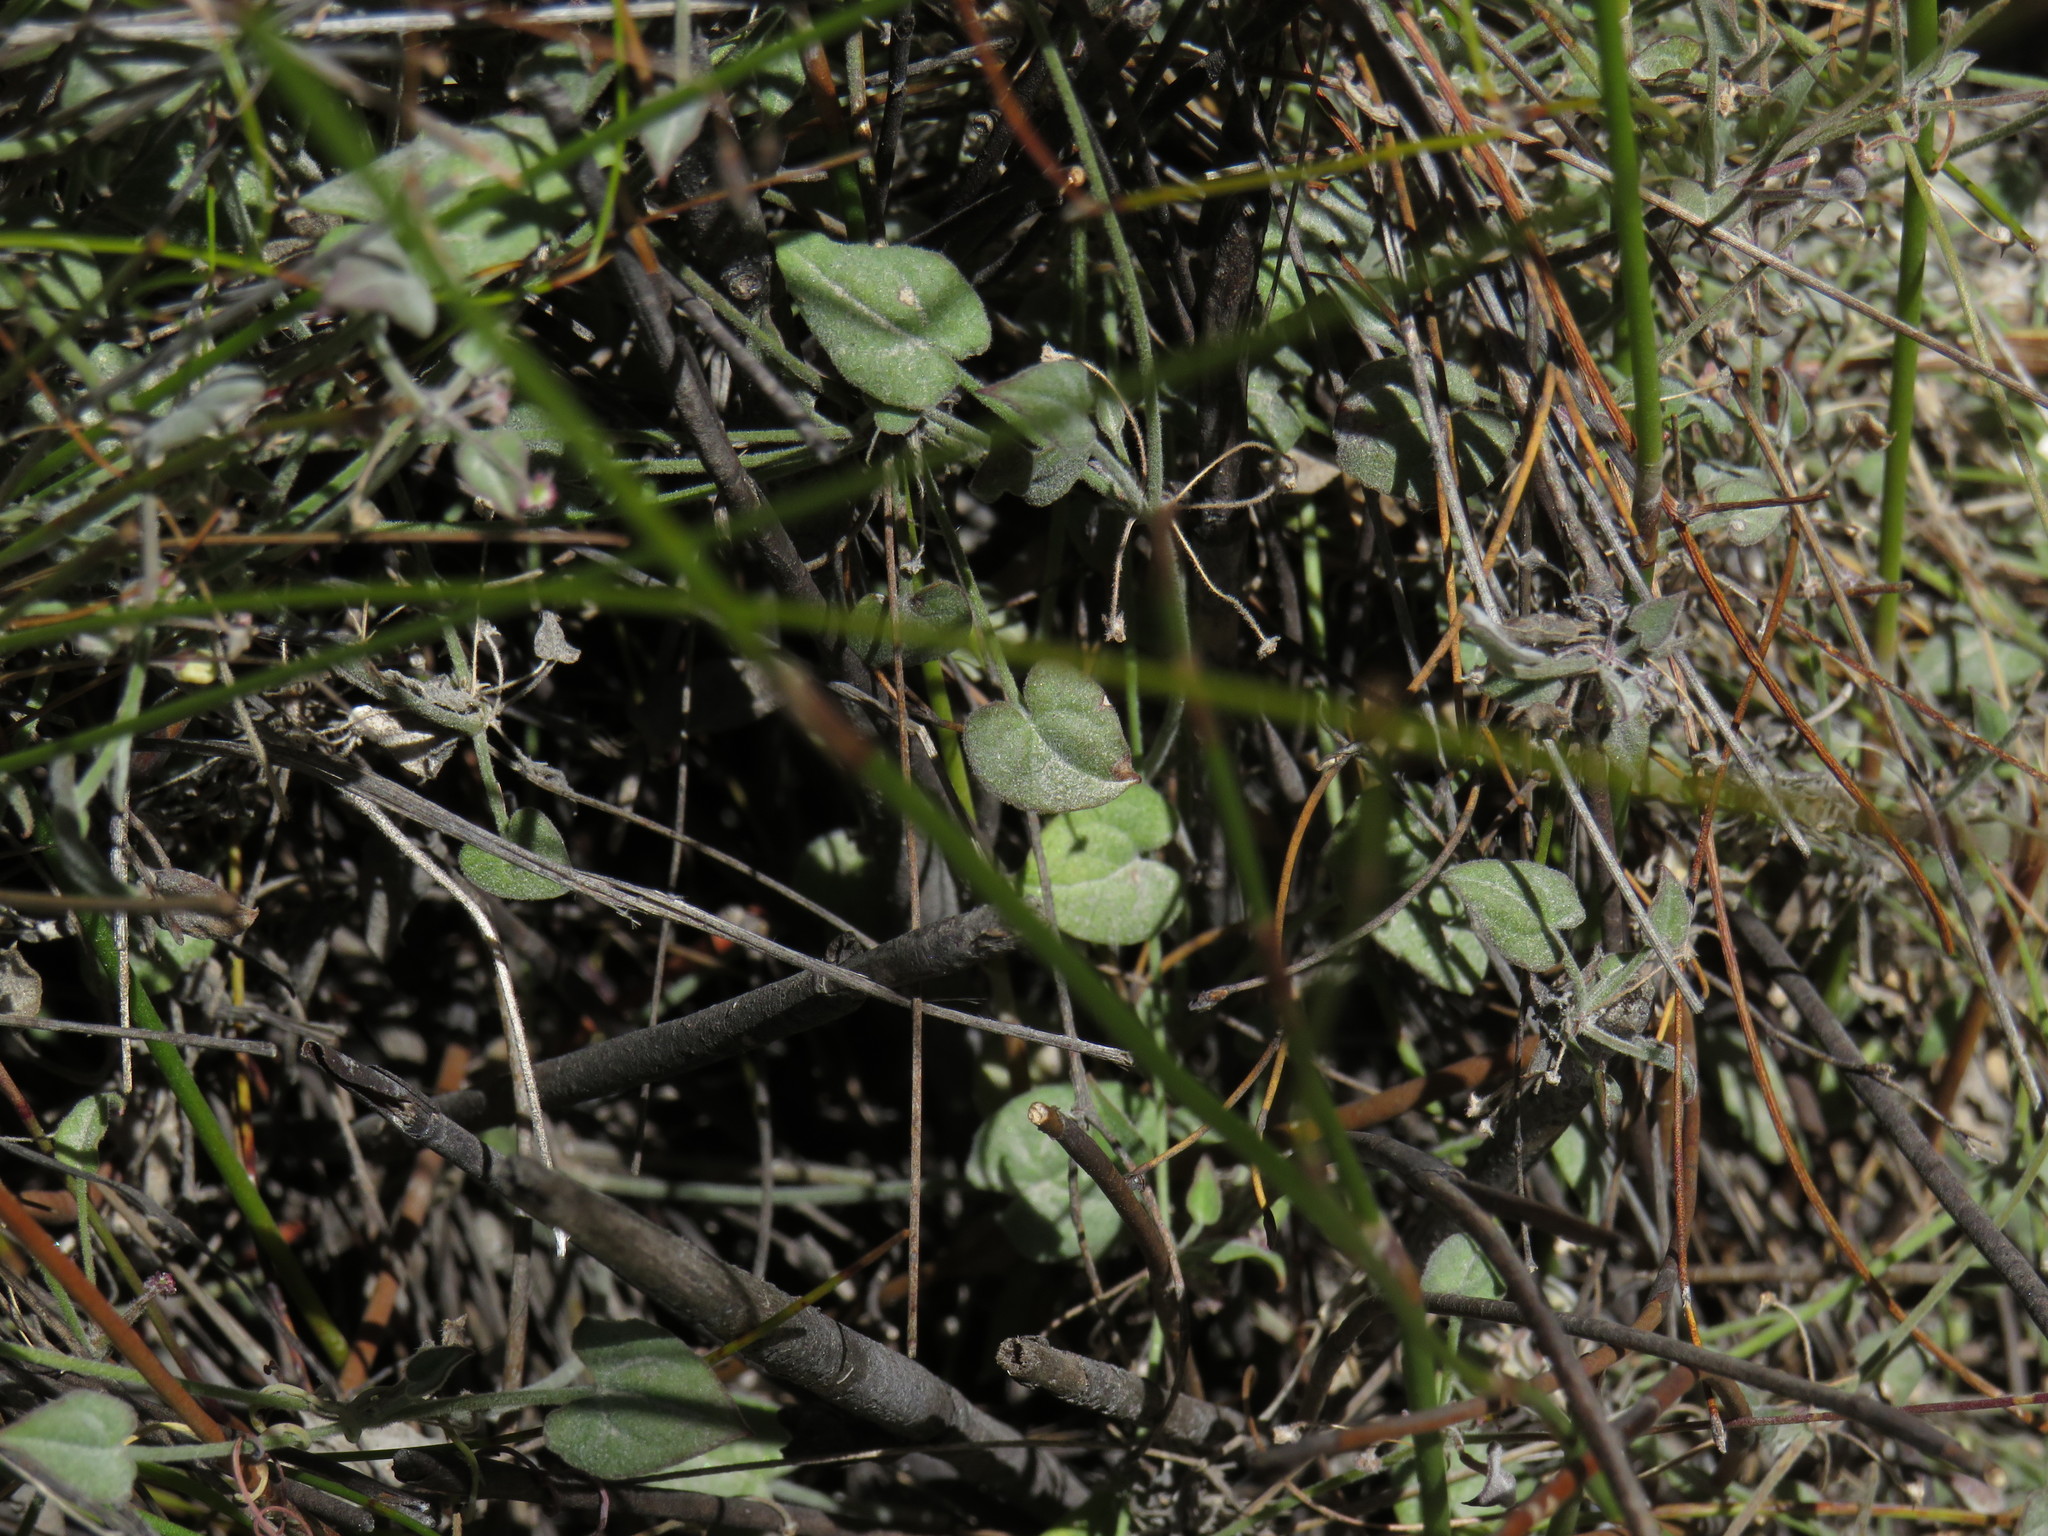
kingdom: Plantae
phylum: Tracheophyta
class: Magnoliopsida
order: Apiales
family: Apiaceae
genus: Centella
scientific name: Centella villosa
